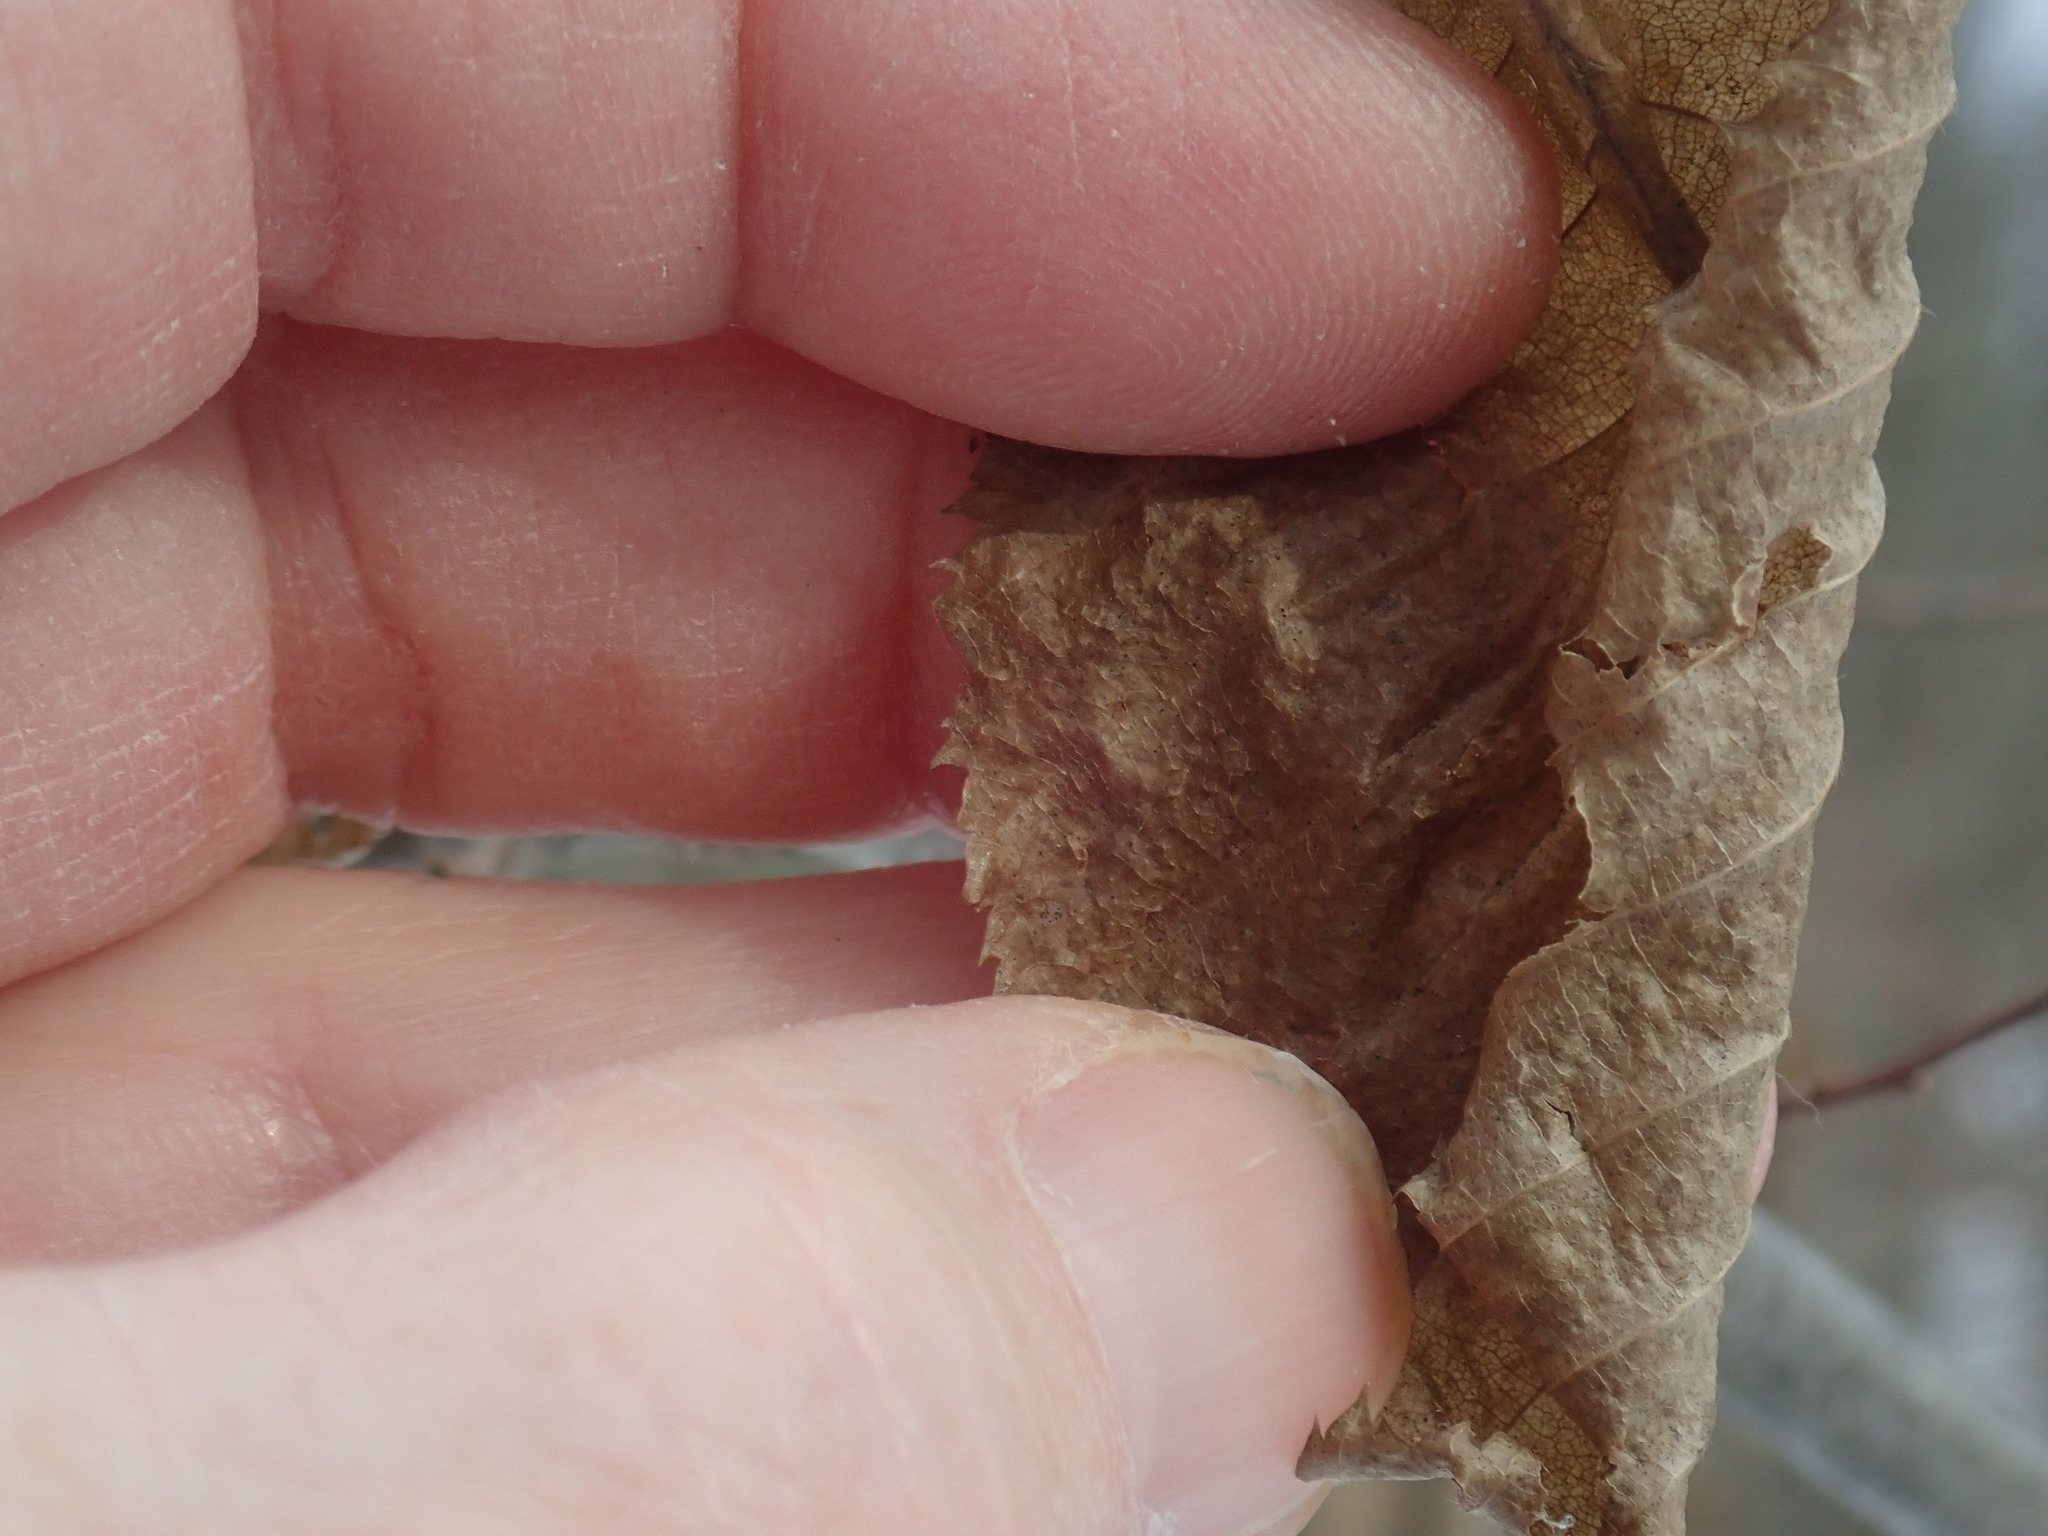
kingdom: Plantae
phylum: Tracheophyta
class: Magnoliopsida
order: Fagales
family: Betulaceae
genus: Carpinus
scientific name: Carpinus caroliniana
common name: American hornbeam
